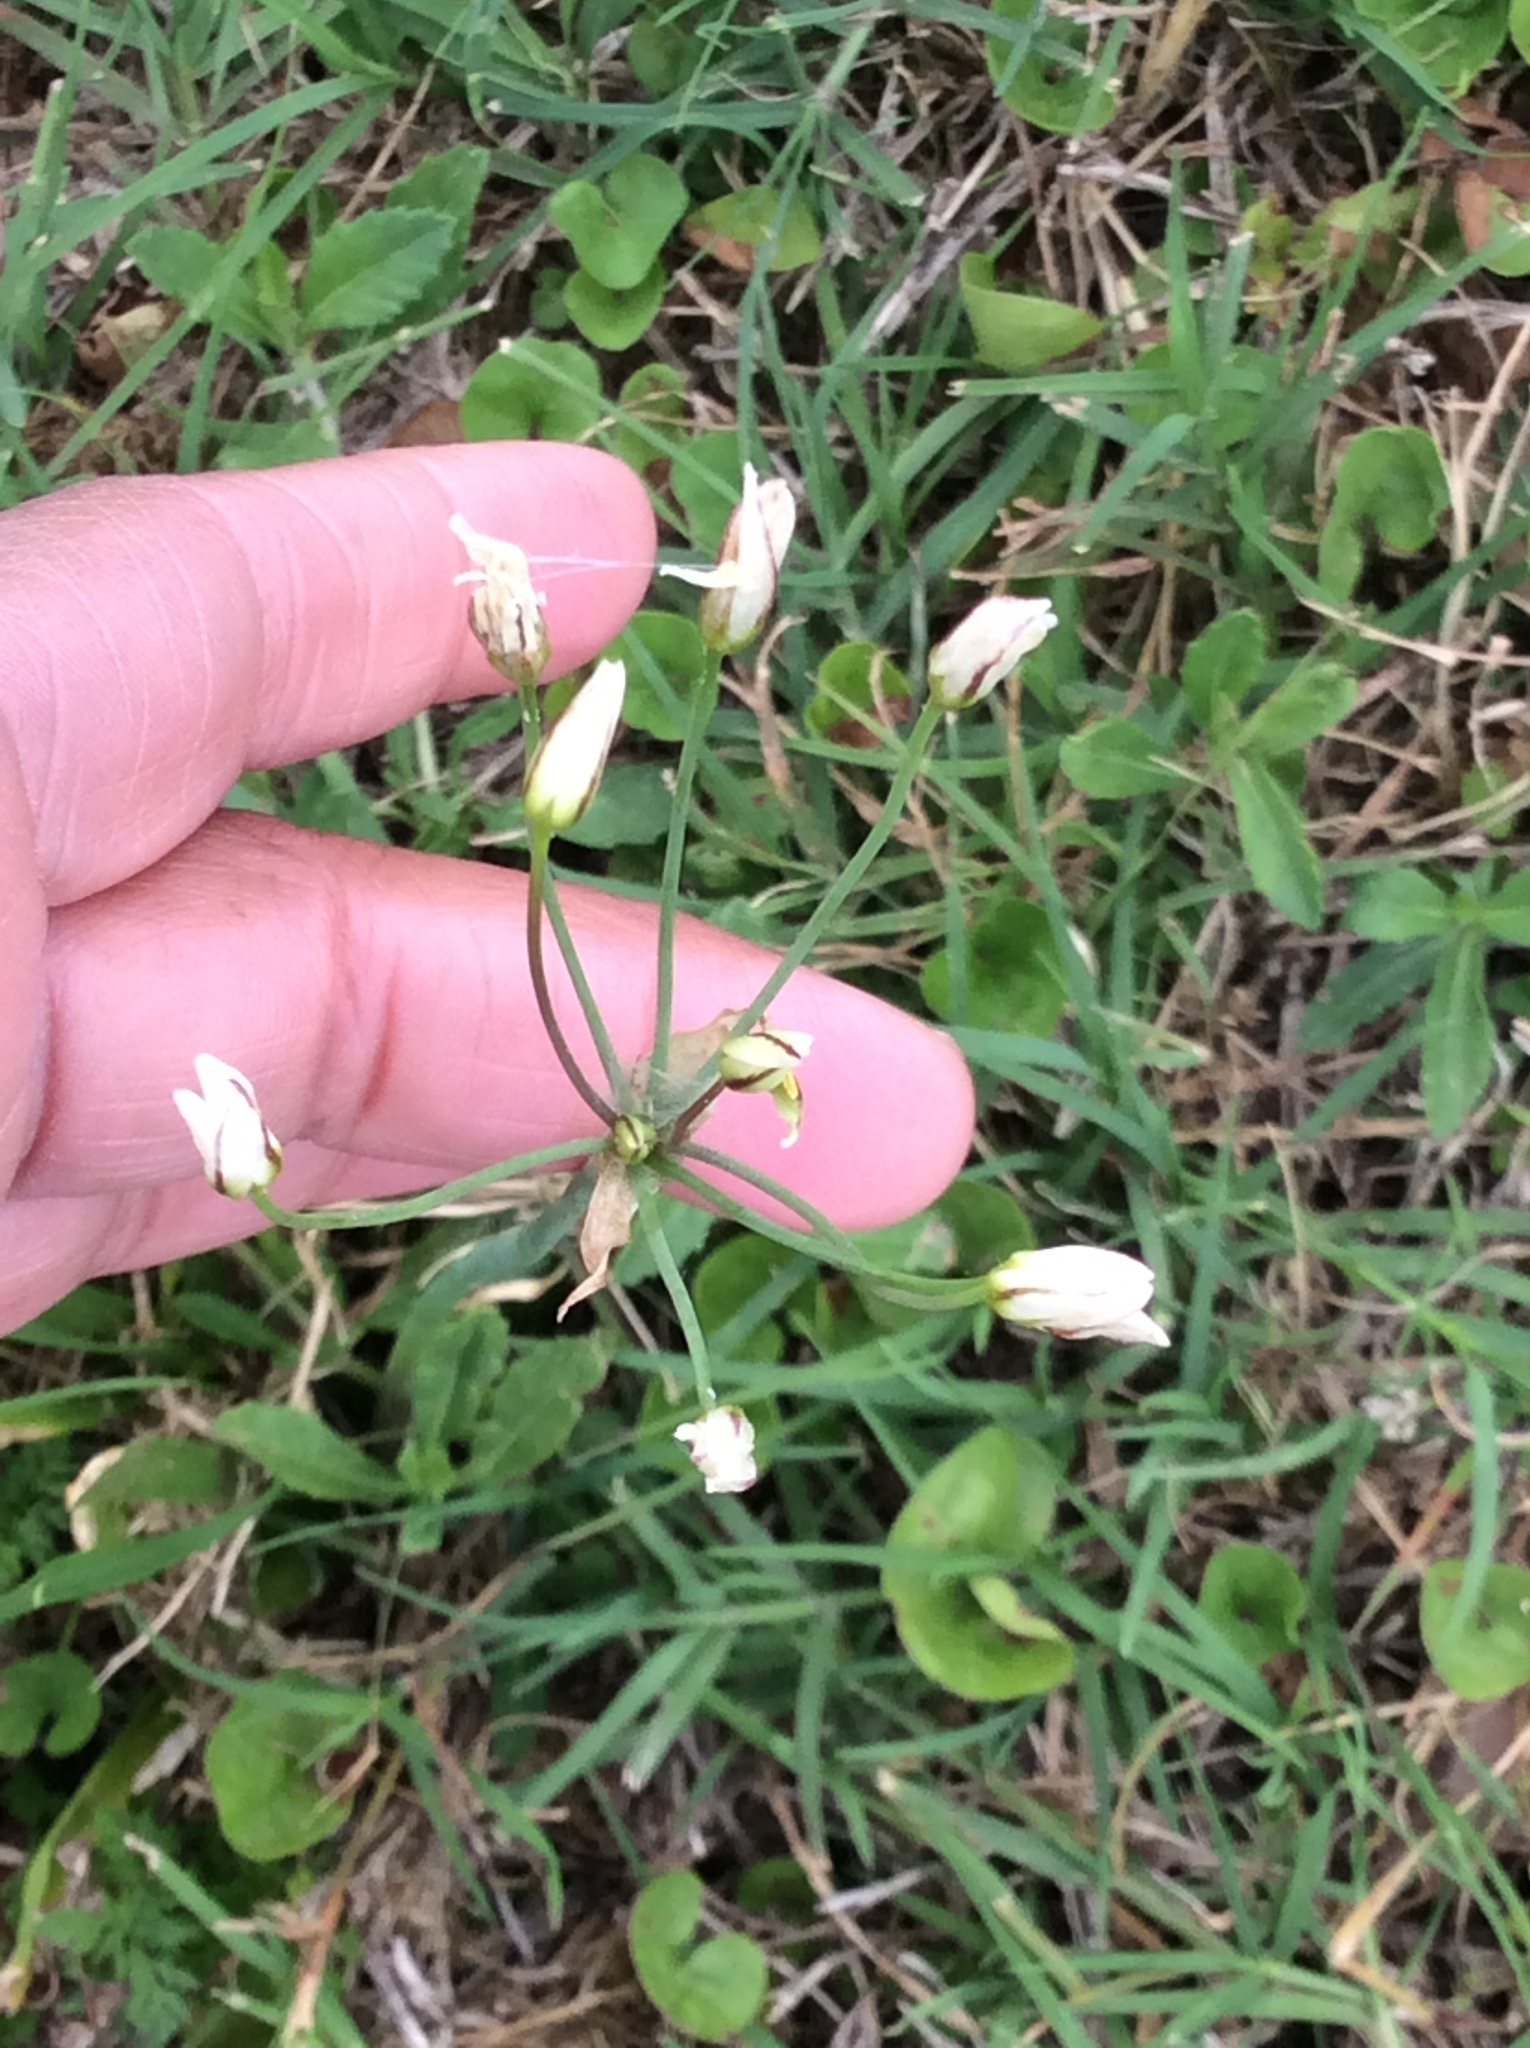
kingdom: Plantae
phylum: Tracheophyta
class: Liliopsida
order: Asparagales
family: Amaryllidaceae
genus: Nothoscordum
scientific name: Nothoscordum bivalve
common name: Crow-poison
